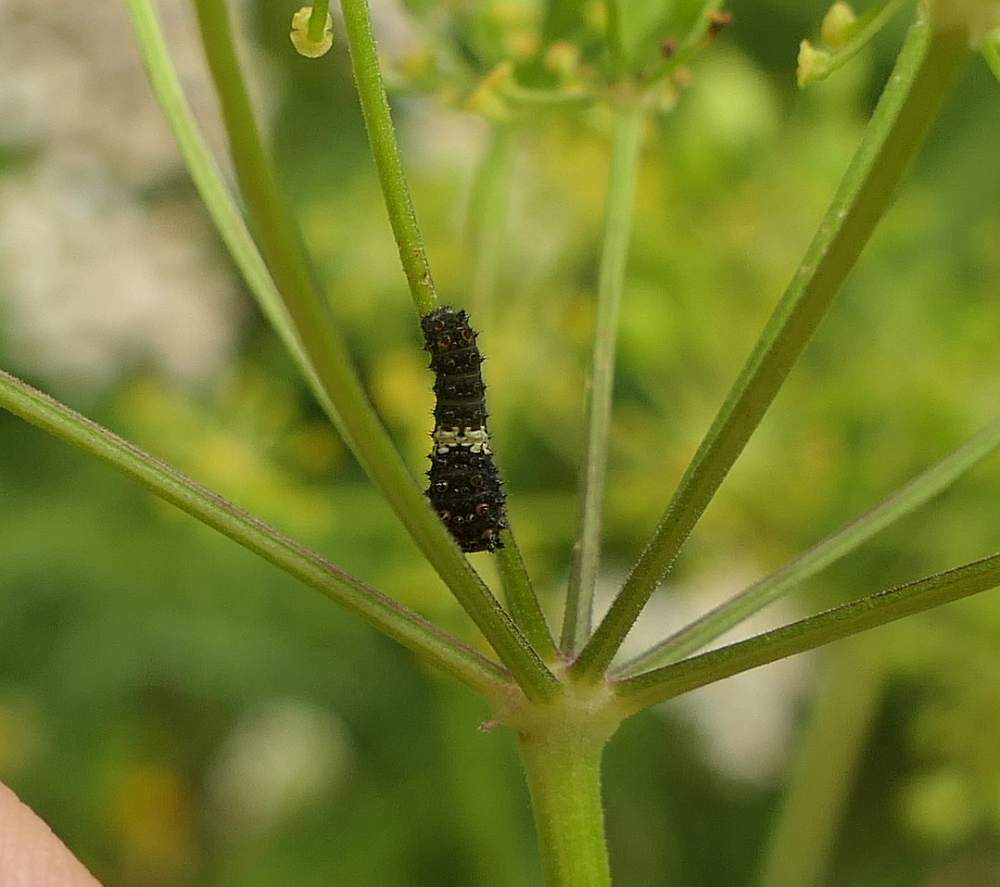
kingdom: Animalia
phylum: Arthropoda
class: Insecta
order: Lepidoptera
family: Papilionidae
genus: Papilio
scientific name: Papilio polyxenes
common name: Black swallowtail
